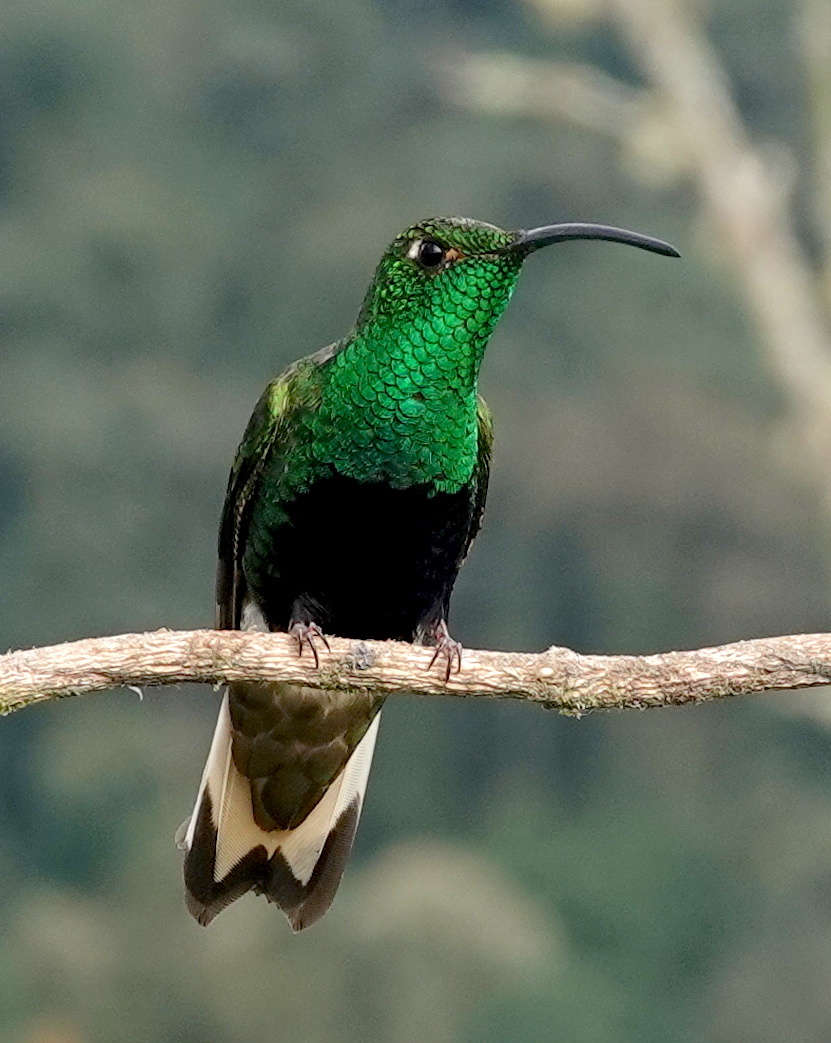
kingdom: Animalia
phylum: Chordata
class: Aves
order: Apodiformes
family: Trochilidae
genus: Lafresnaya
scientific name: Lafresnaya lafresnayi
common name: Mountain velvetbreast
